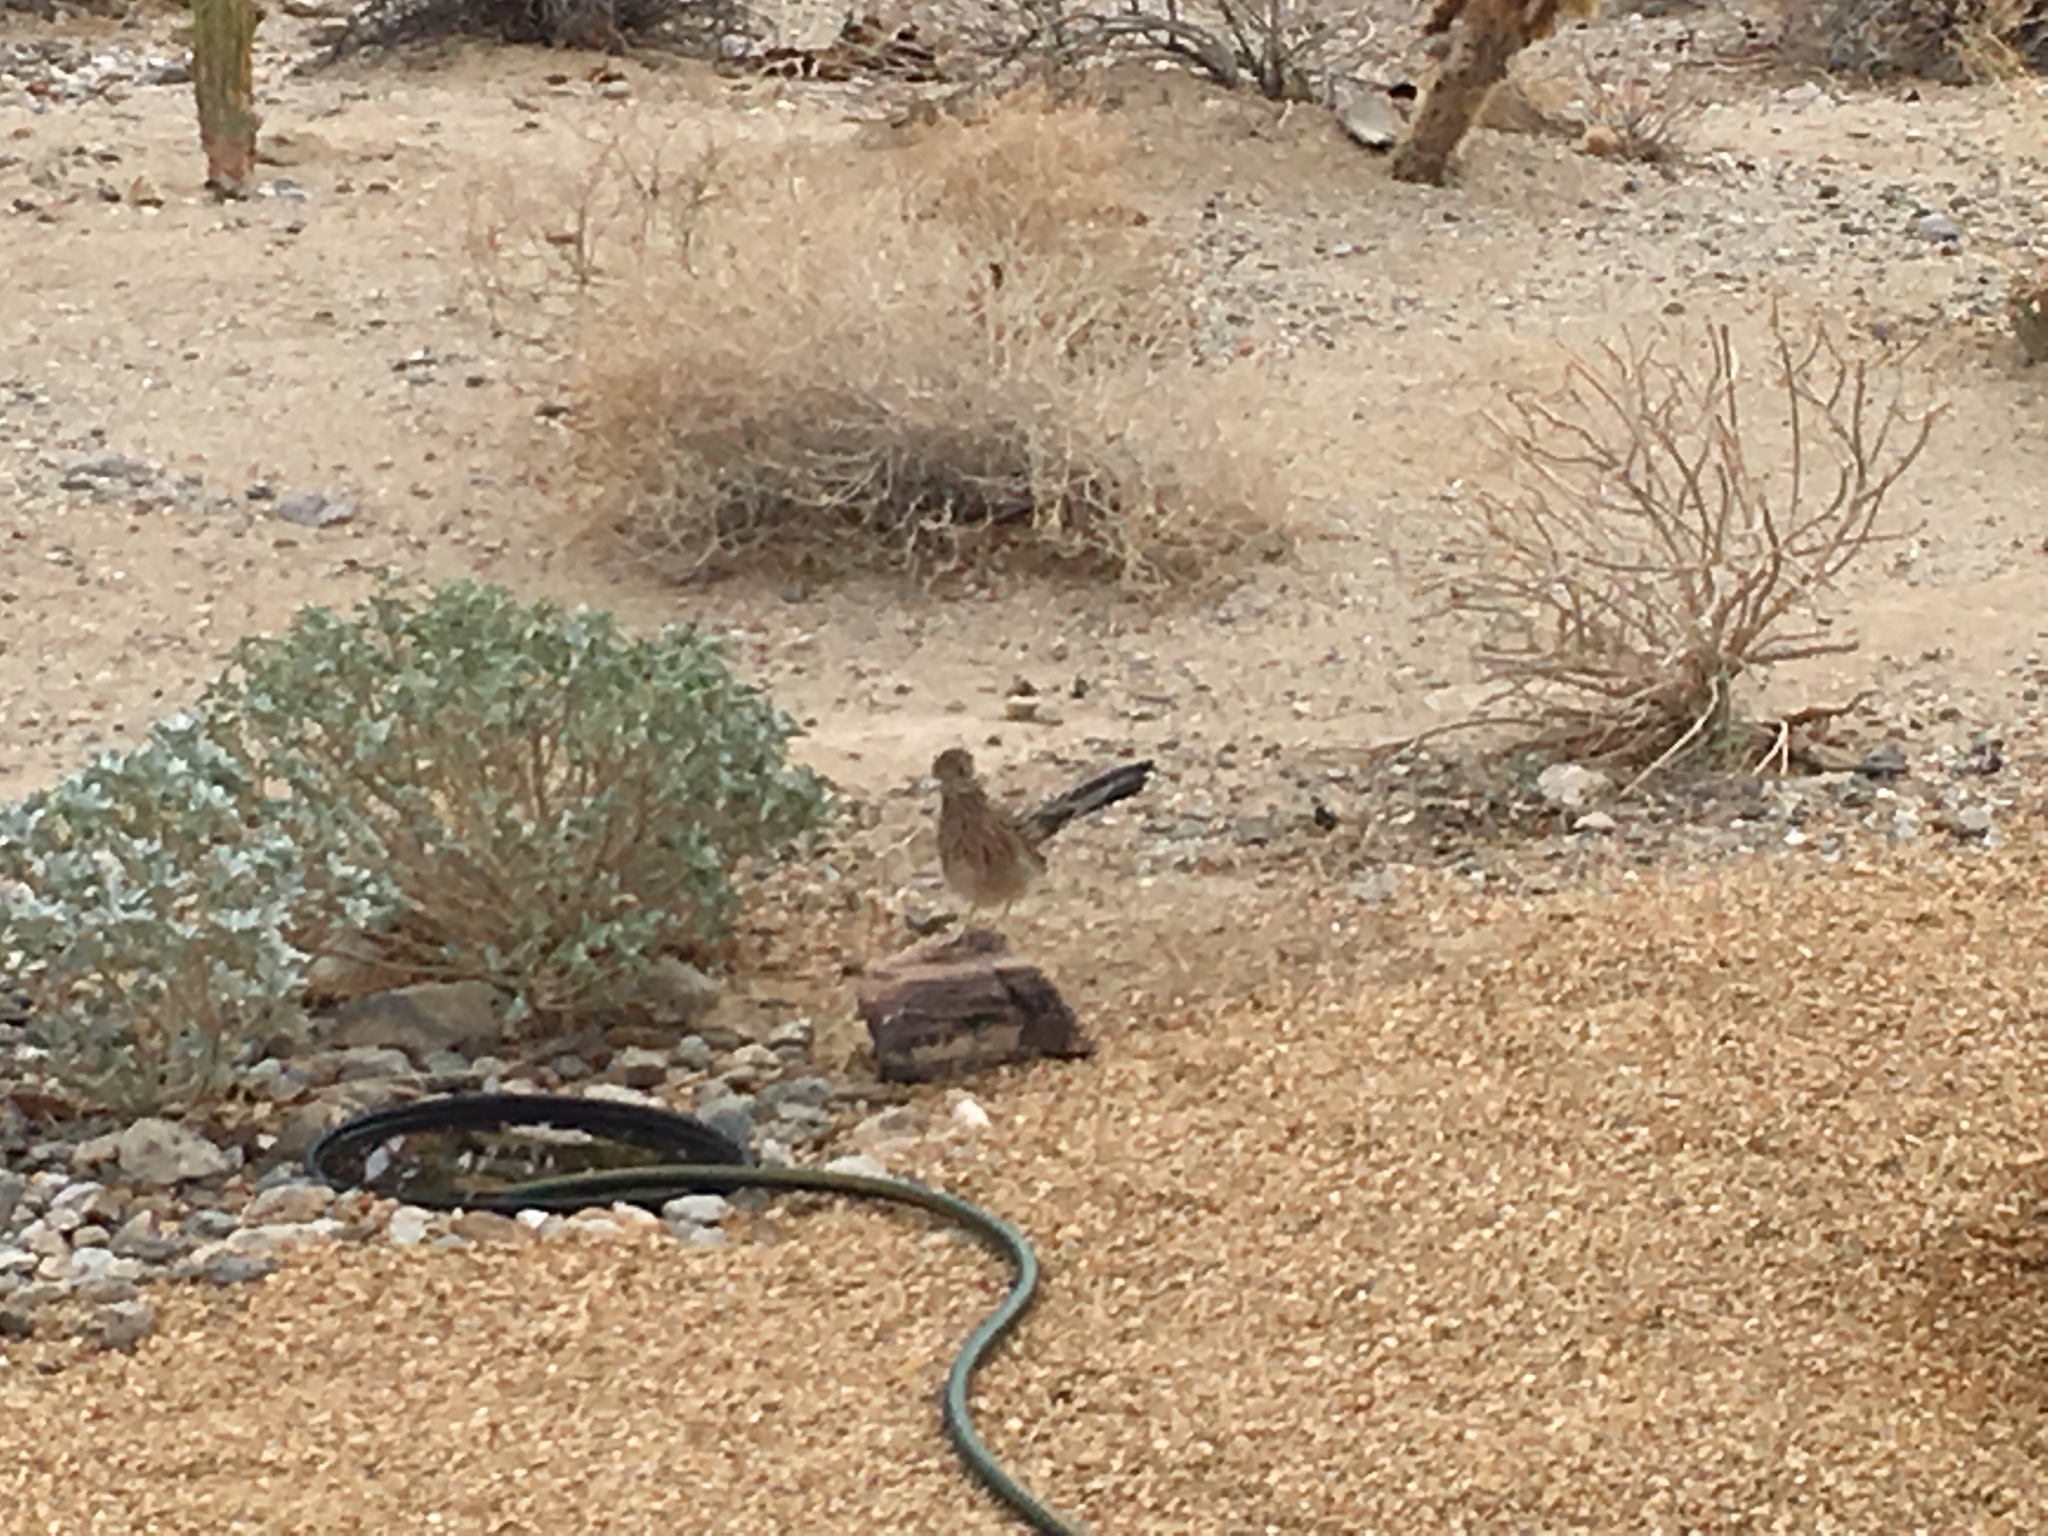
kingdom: Animalia
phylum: Chordata
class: Aves
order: Cuculiformes
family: Cuculidae
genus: Geococcyx
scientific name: Geococcyx californianus
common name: Greater roadrunner
